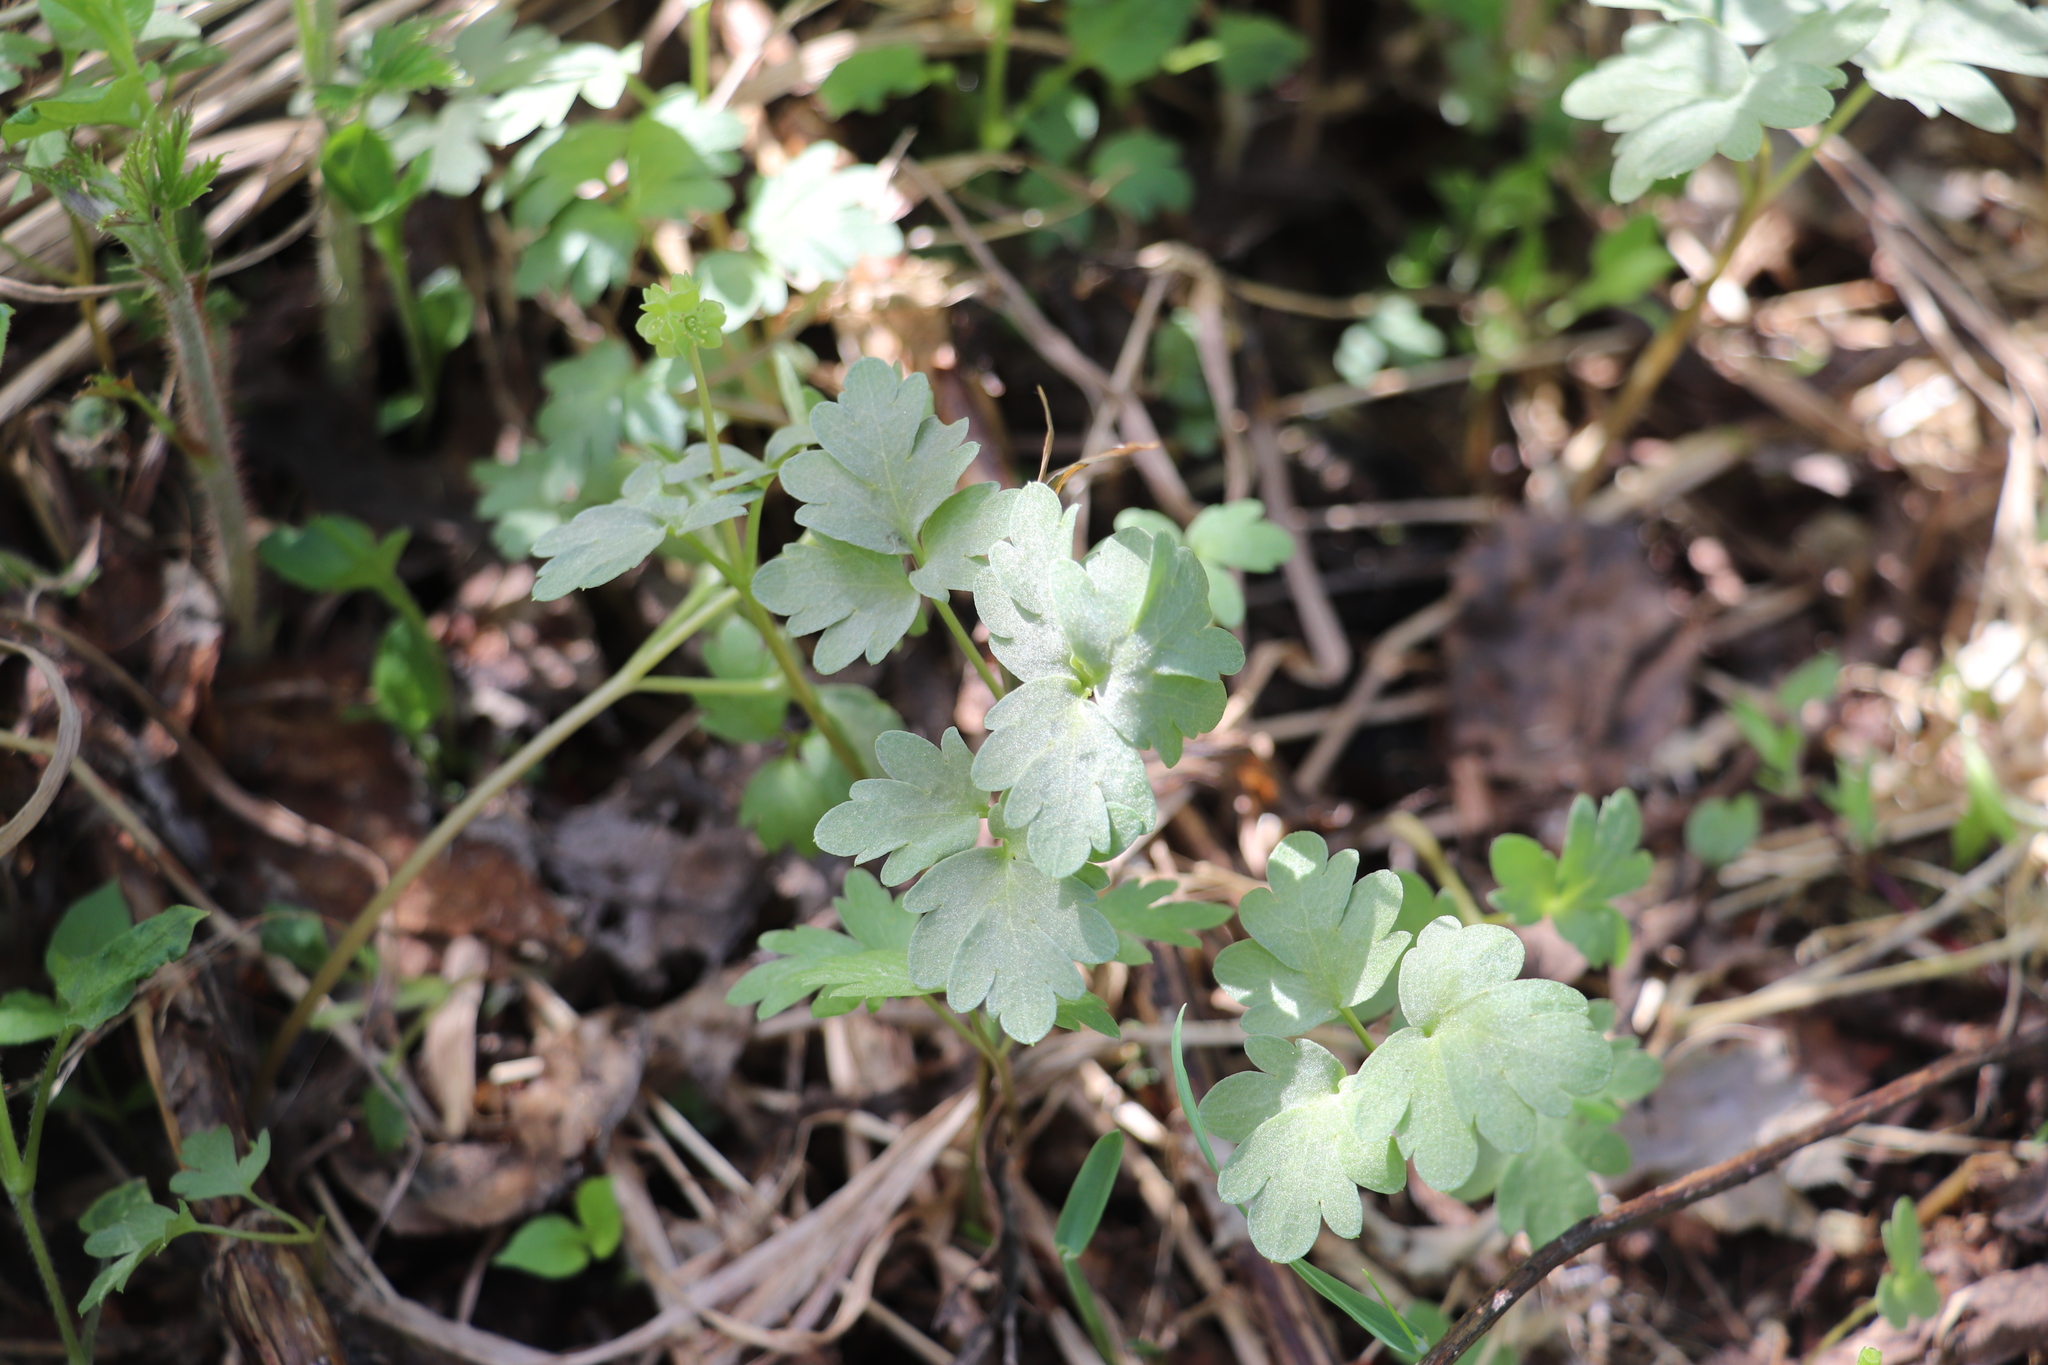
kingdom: Plantae
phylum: Tracheophyta
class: Magnoliopsida
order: Dipsacales
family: Viburnaceae
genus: Adoxa
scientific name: Adoxa moschatellina
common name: Moschatel
